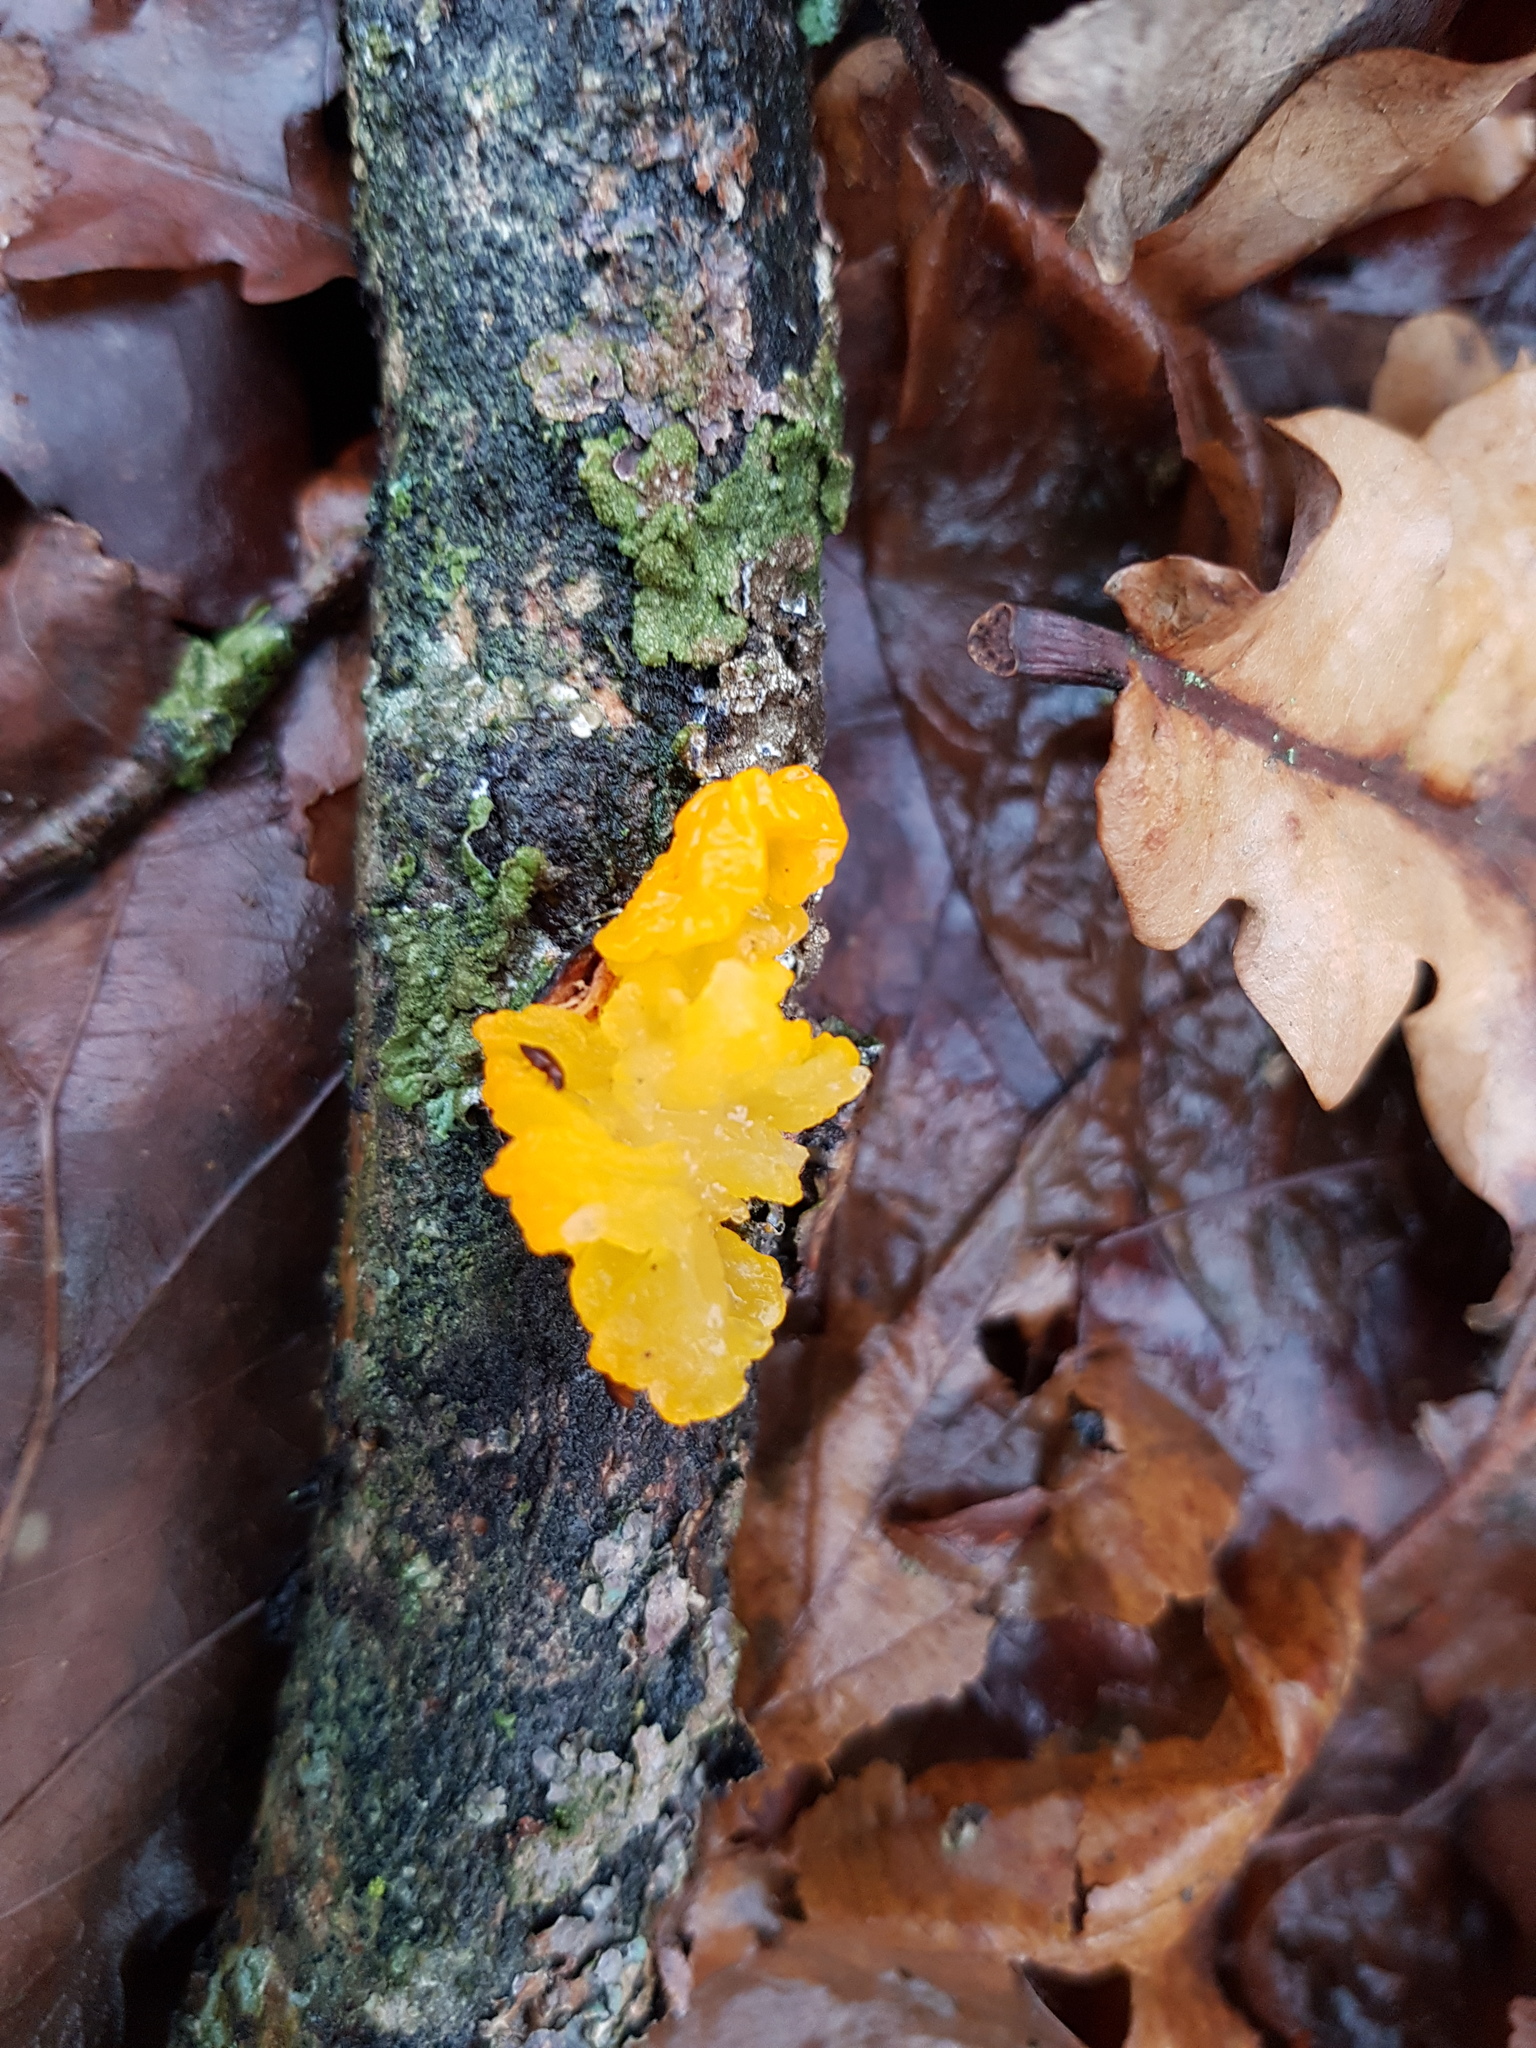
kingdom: Fungi
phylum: Basidiomycota
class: Tremellomycetes
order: Tremellales
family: Tremellaceae
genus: Tremella
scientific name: Tremella mesenterica
